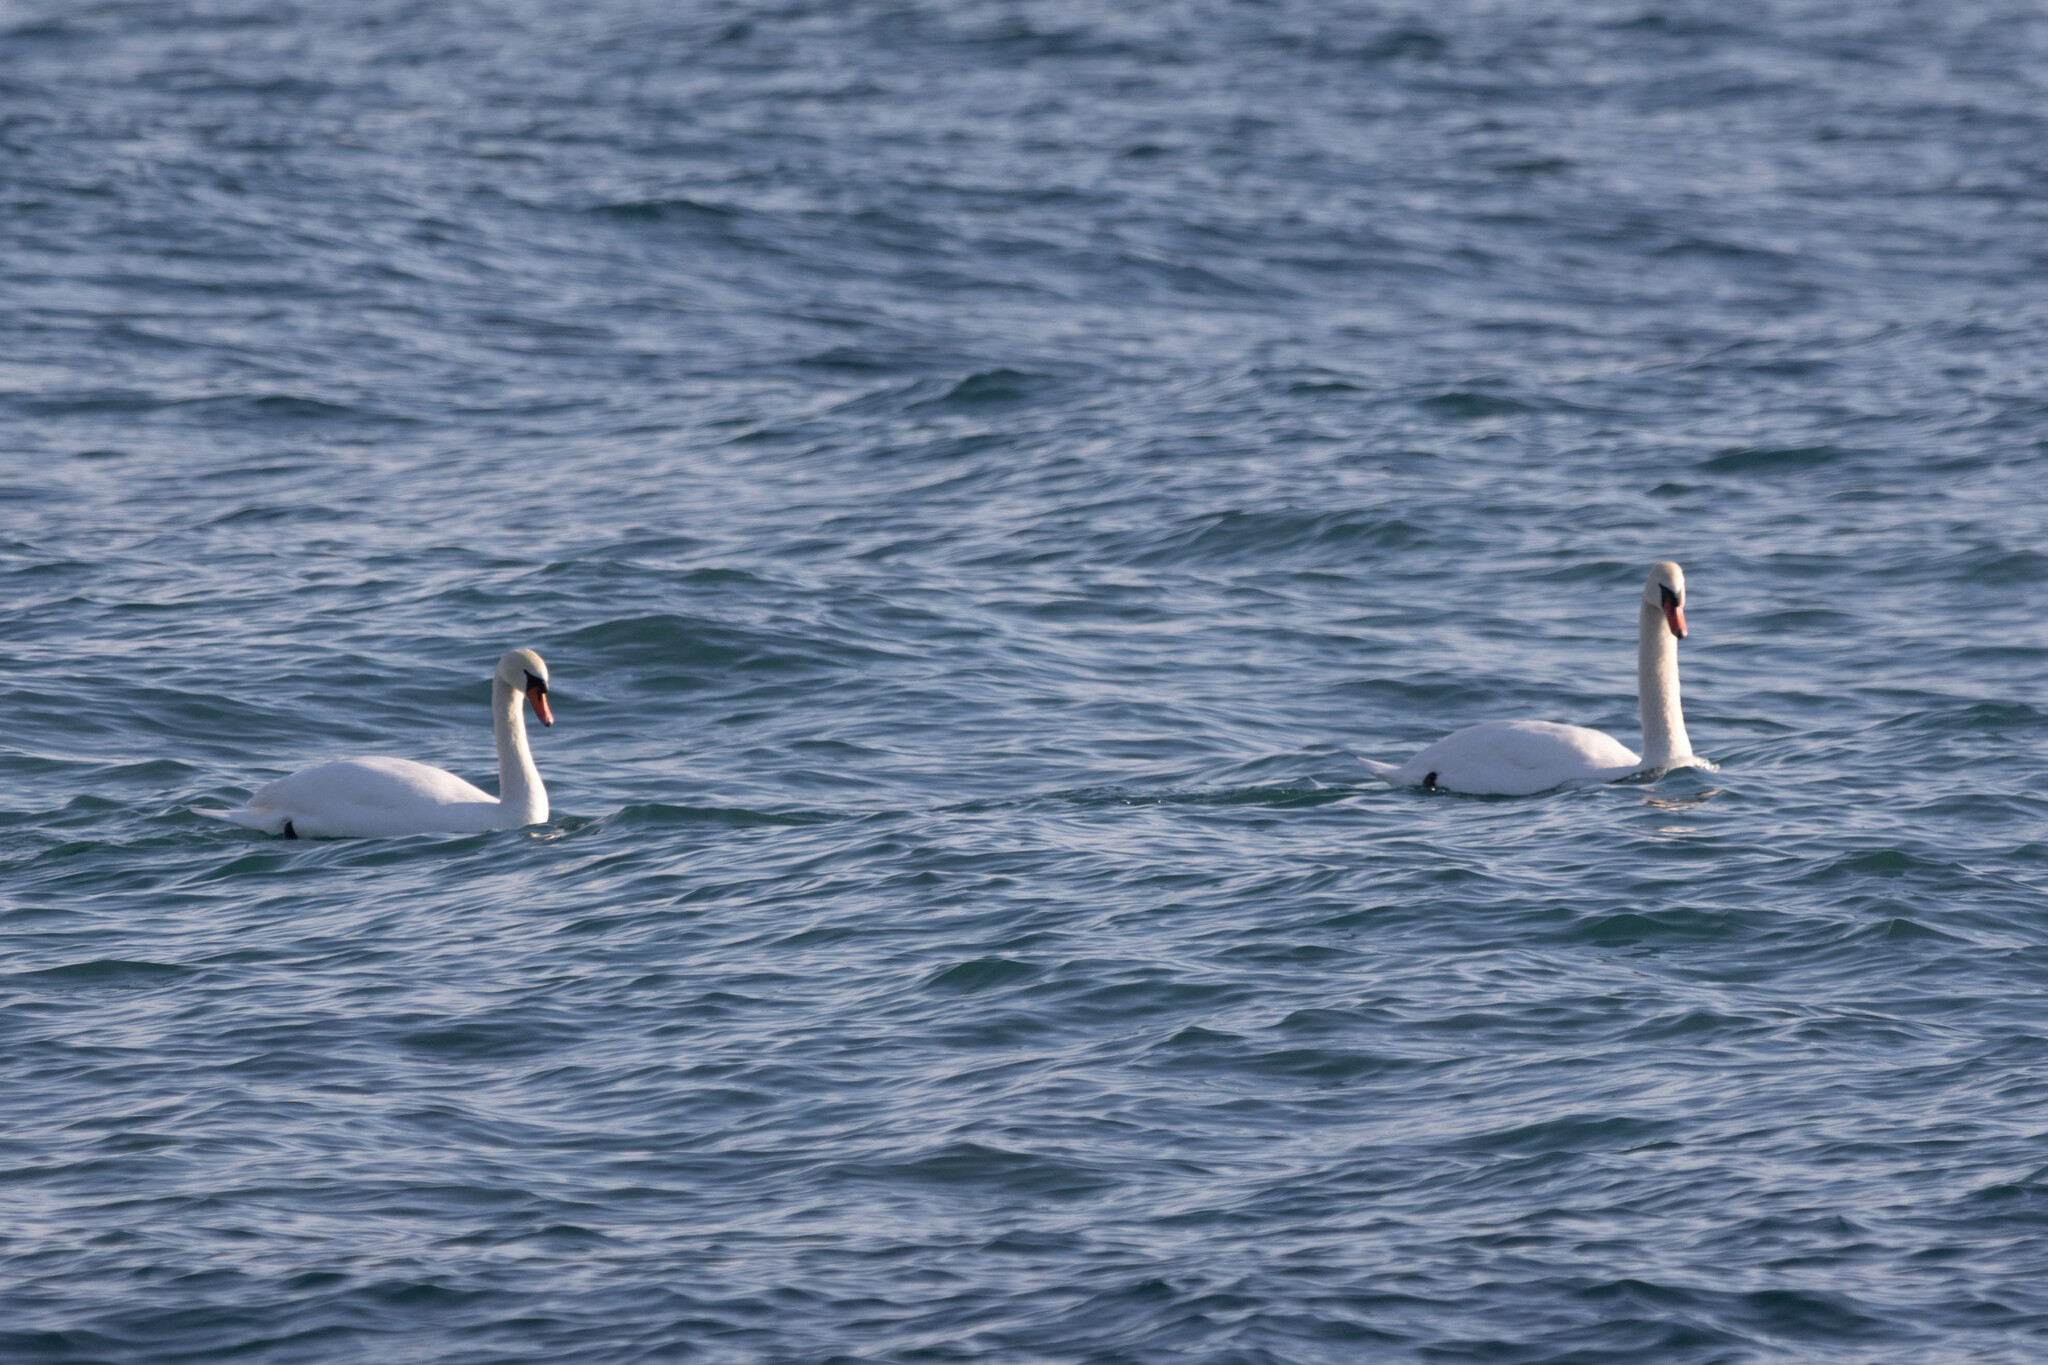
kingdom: Animalia
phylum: Chordata
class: Aves
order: Anseriformes
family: Anatidae
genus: Cygnus
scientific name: Cygnus olor
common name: Mute swan
